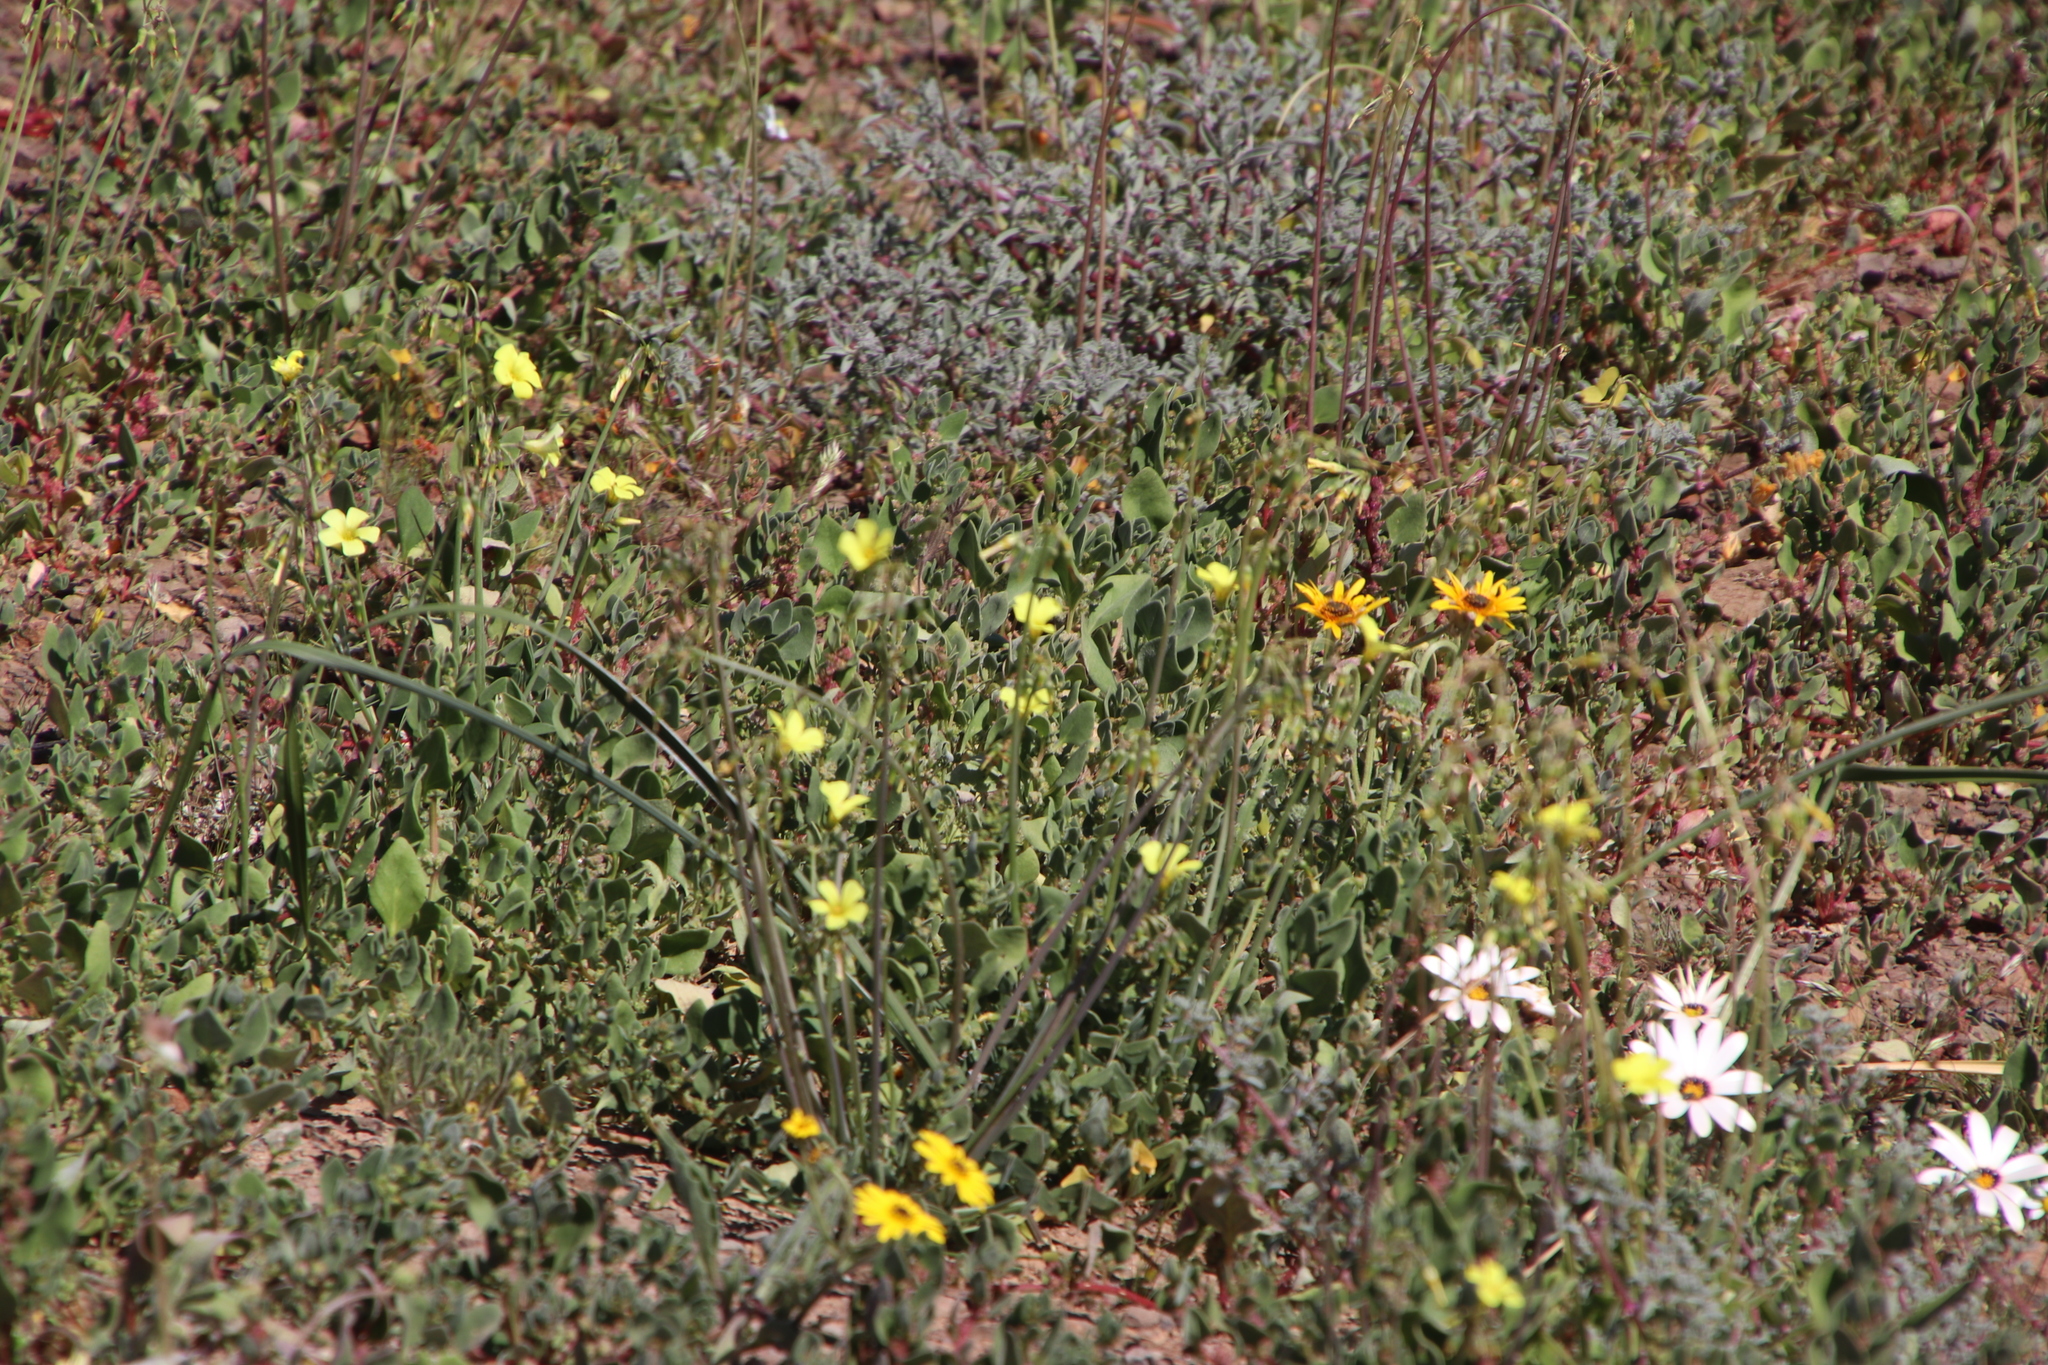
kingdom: Plantae
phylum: Tracheophyta
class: Magnoliopsida
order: Oxalidales
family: Oxalidaceae
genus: Oxalis
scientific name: Oxalis pes-caprae
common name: Bermuda-buttercup
